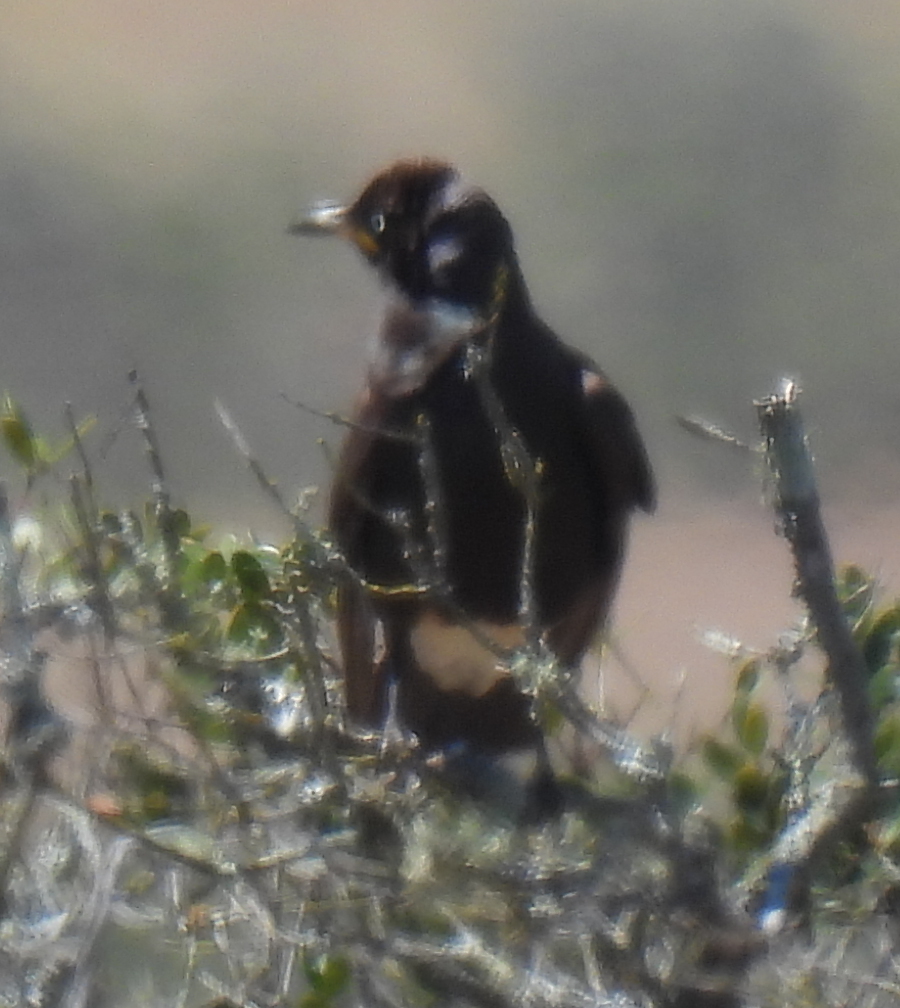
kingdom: Animalia
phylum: Chordata
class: Aves
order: Passeriformes
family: Sturnidae
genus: Lamprotornis
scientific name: Lamprotornis bicolor
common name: Pied starling
